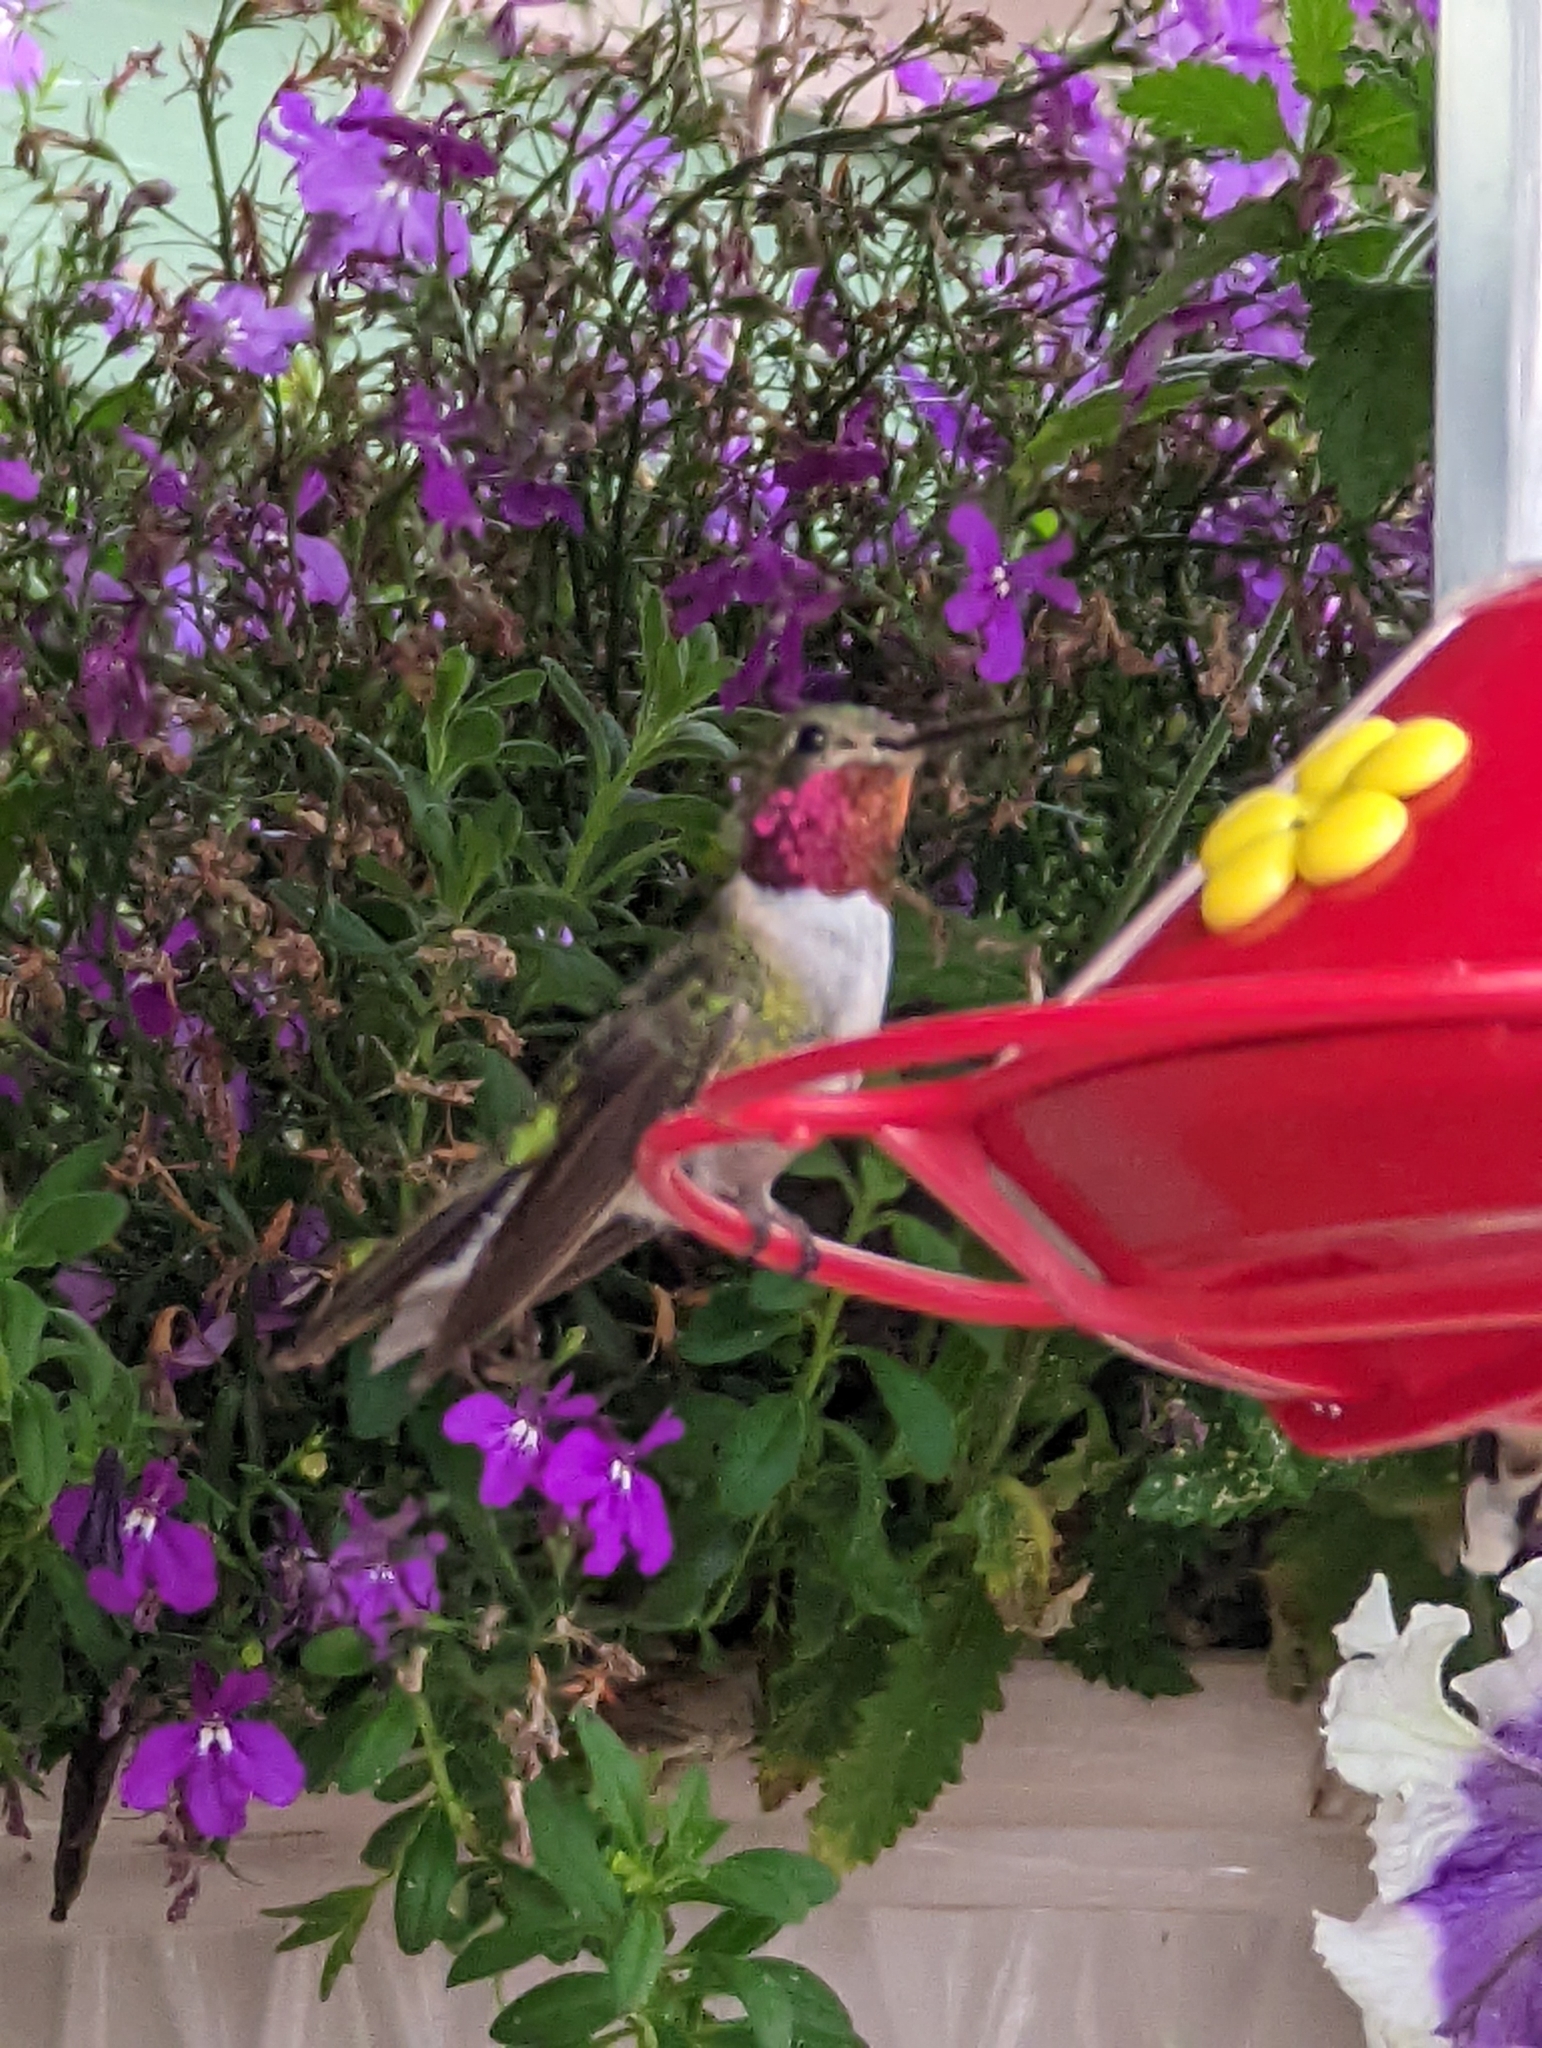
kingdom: Animalia
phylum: Chordata
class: Aves
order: Apodiformes
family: Trochilidae
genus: Selasphorus
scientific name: Selasphorus platycercus
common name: Broad-tailed hummingbird
